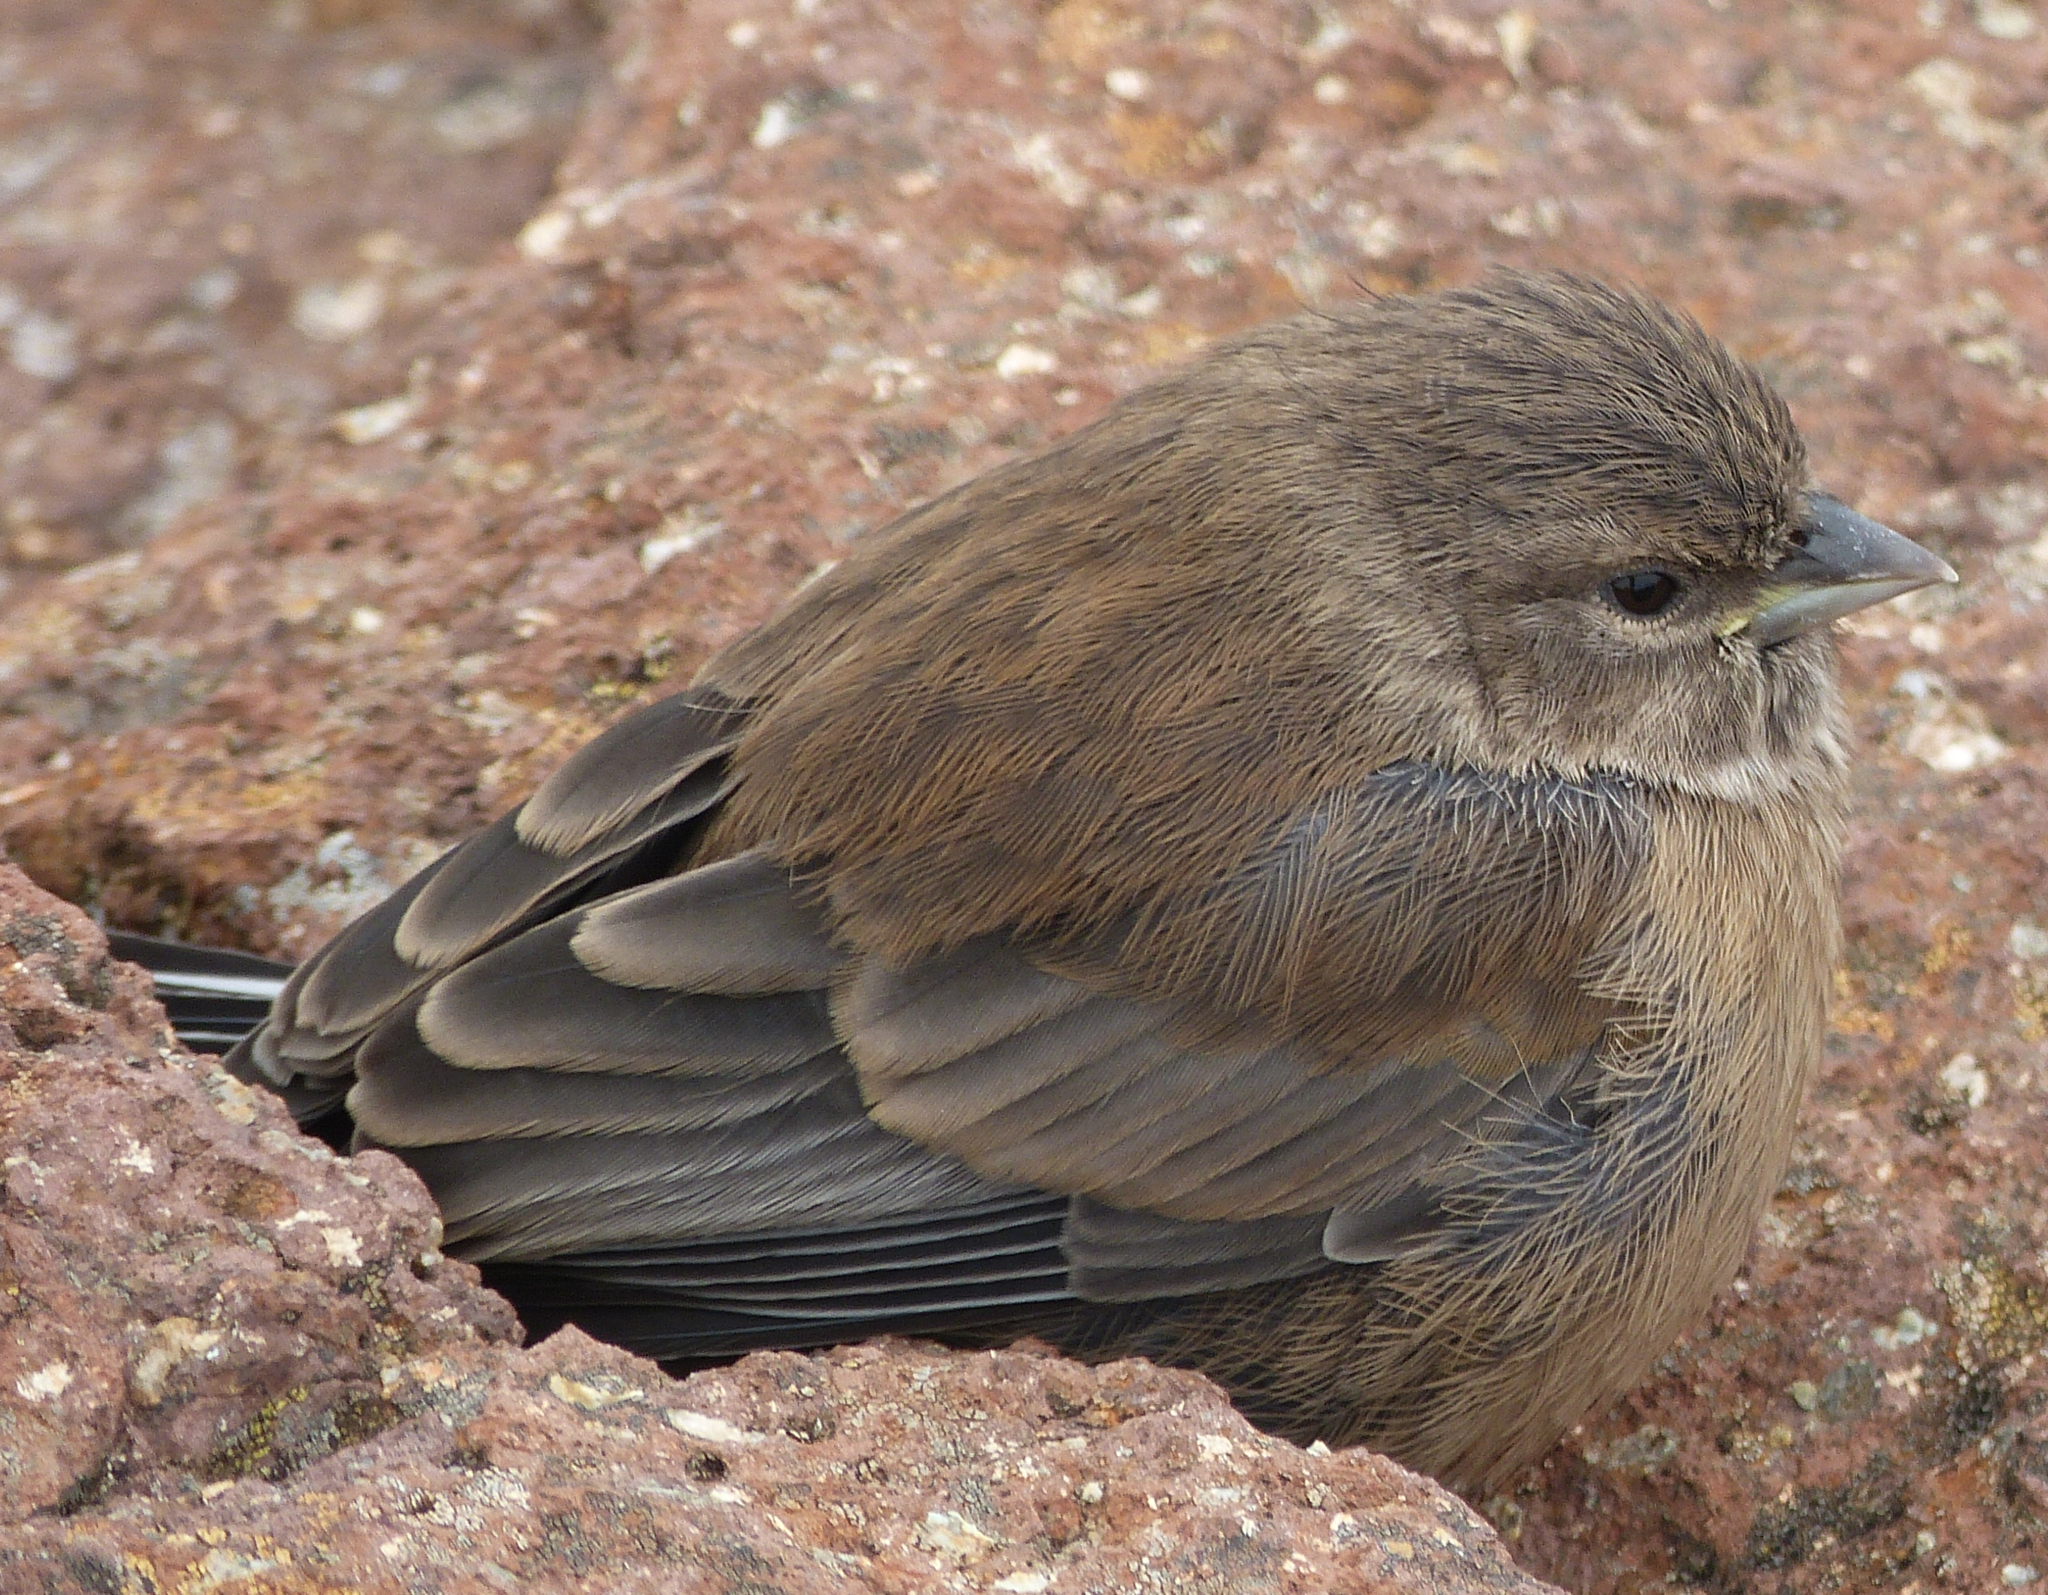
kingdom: Animalia
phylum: Chordata
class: Aves
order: Passeriformes
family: Fringillidae
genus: Crithagra
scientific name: Crithagra symonsi
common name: Drakensberg siskin
